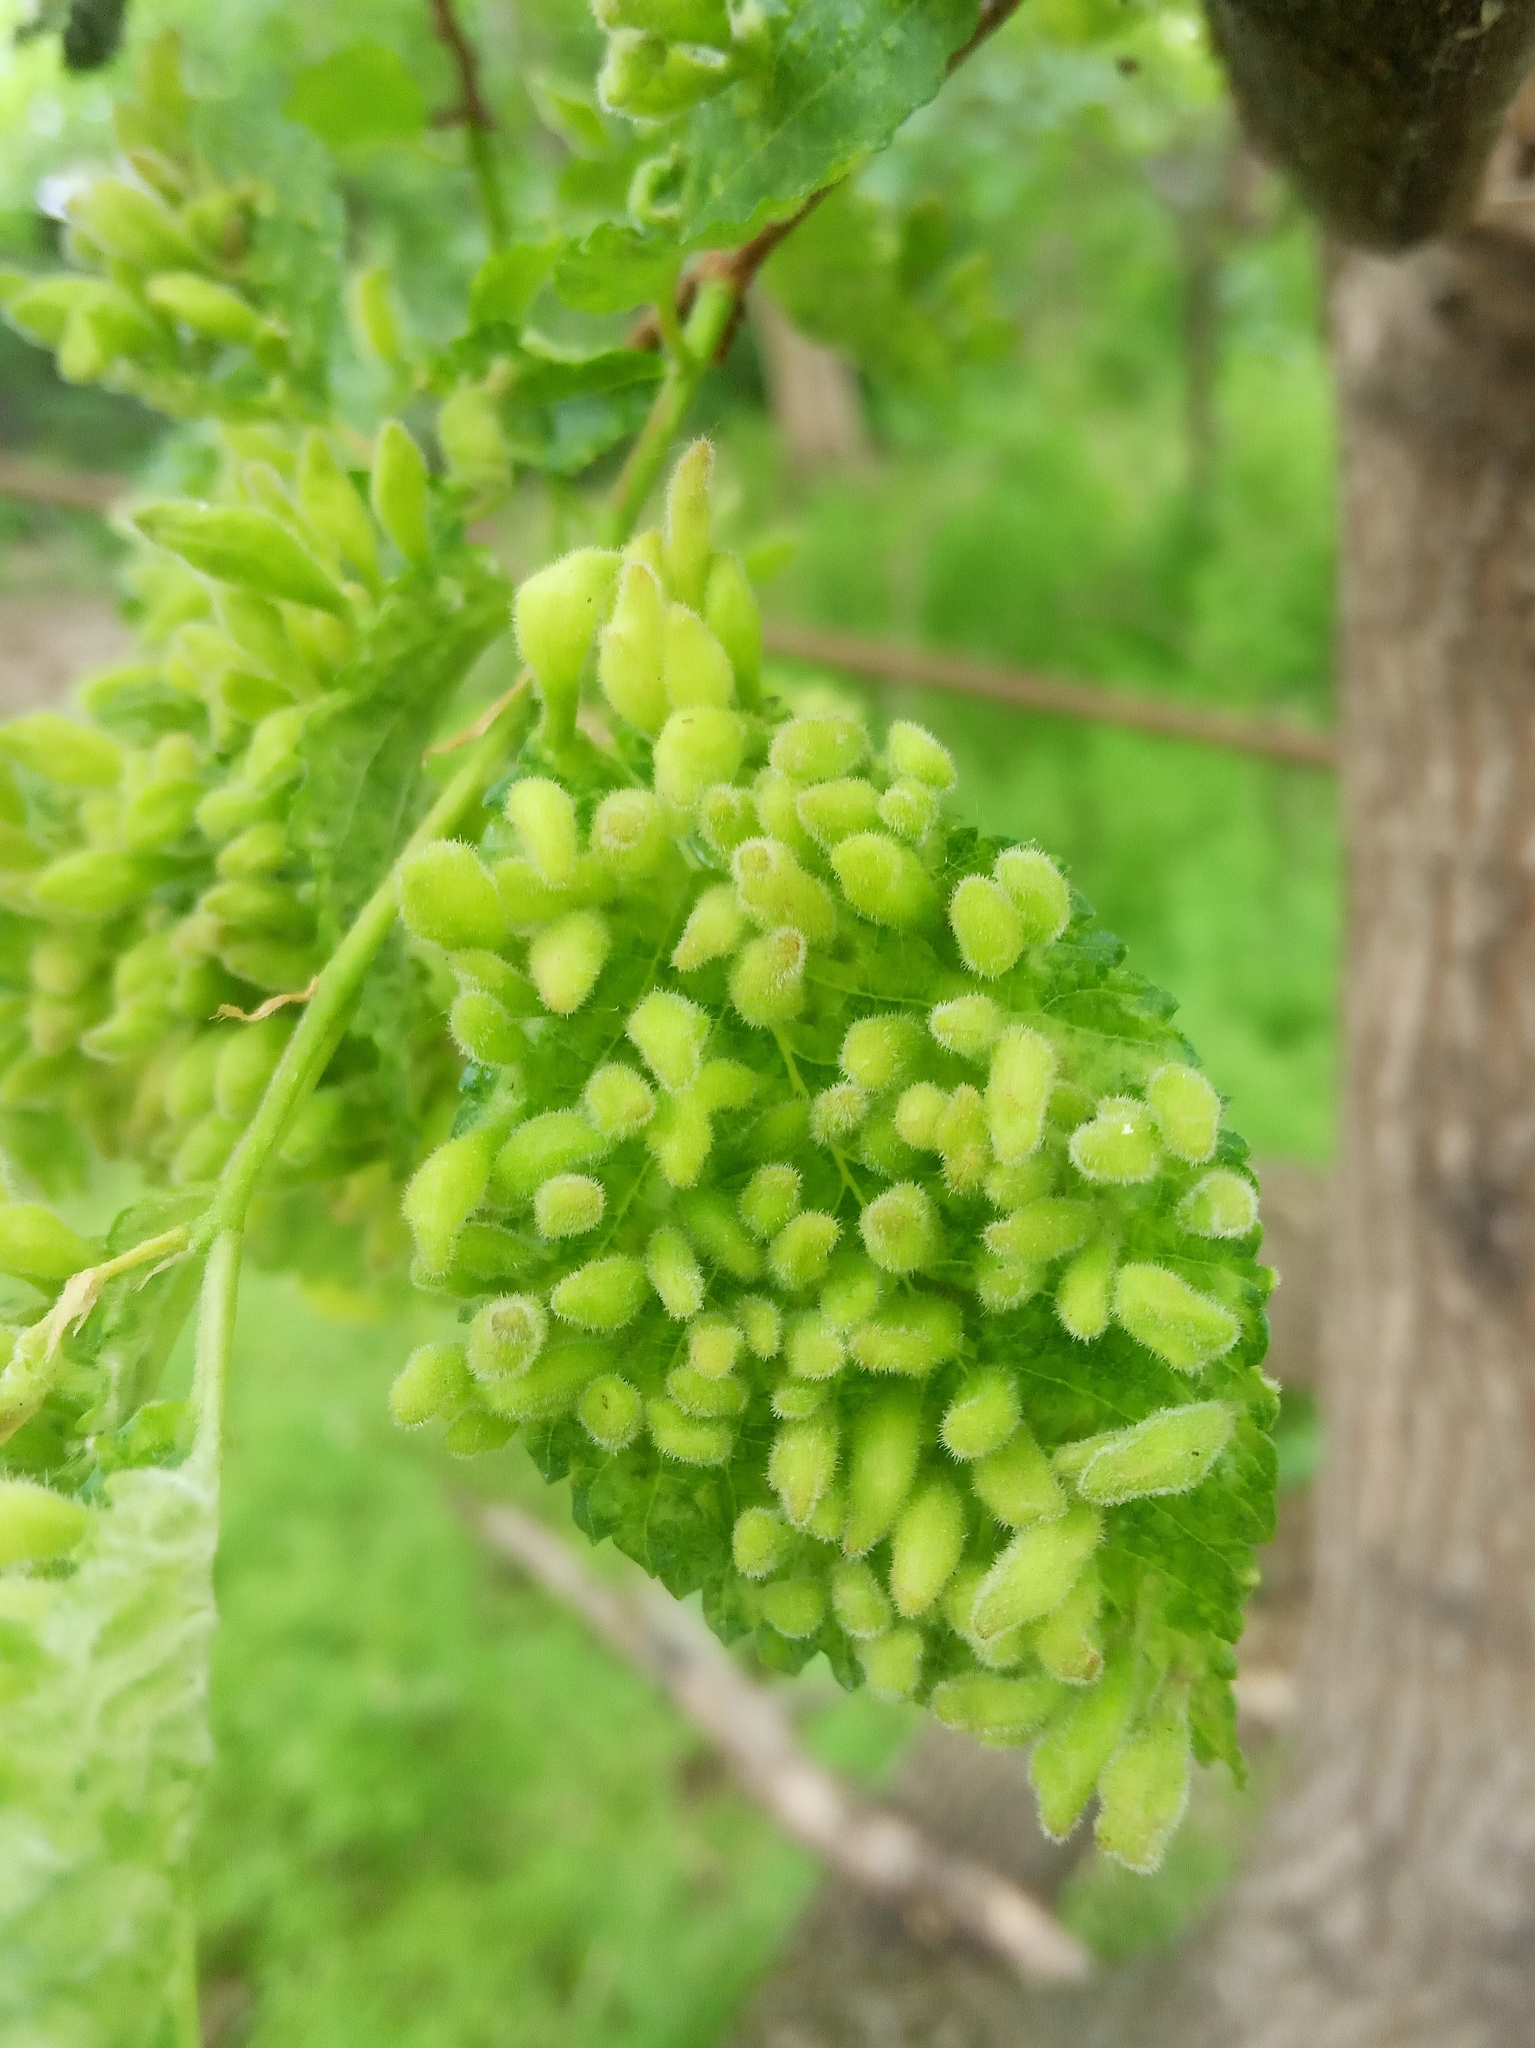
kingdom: Animalia
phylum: Arthropoda
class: Insecta
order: Hemiptera
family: Aphididae
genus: Tetraneura
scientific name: Tetraneura
